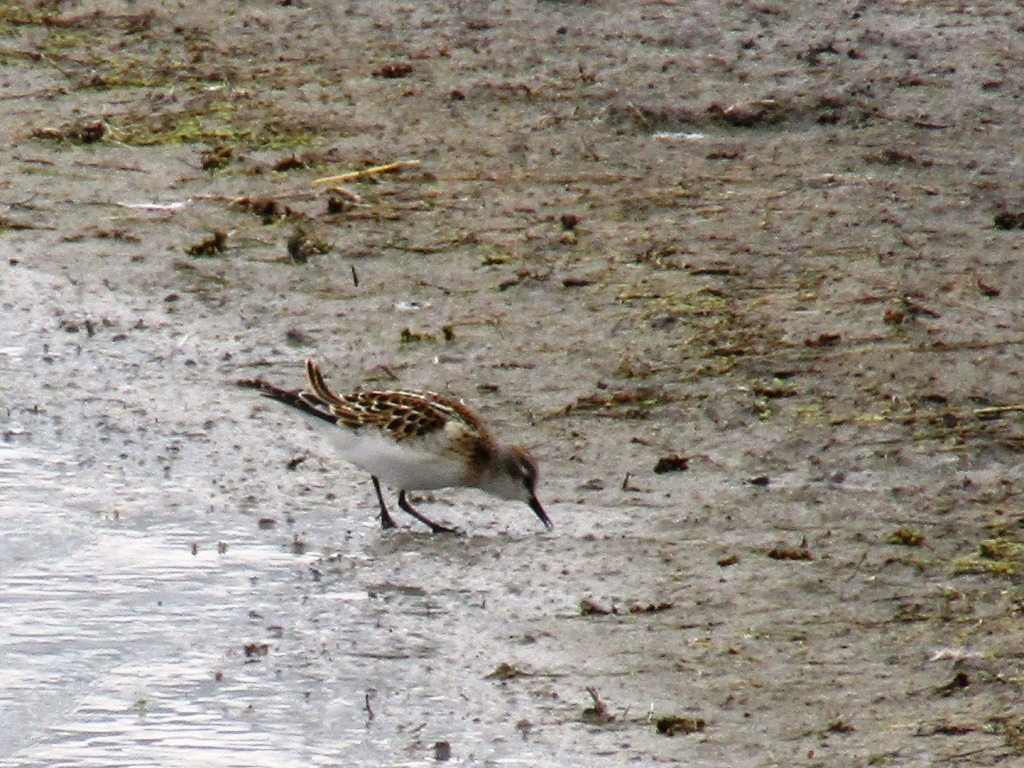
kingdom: Animalia
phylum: Chordata
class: Aves
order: Charadriiformes
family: Scolopacidae
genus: Calidris
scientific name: Calidris minuta
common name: Little stint
